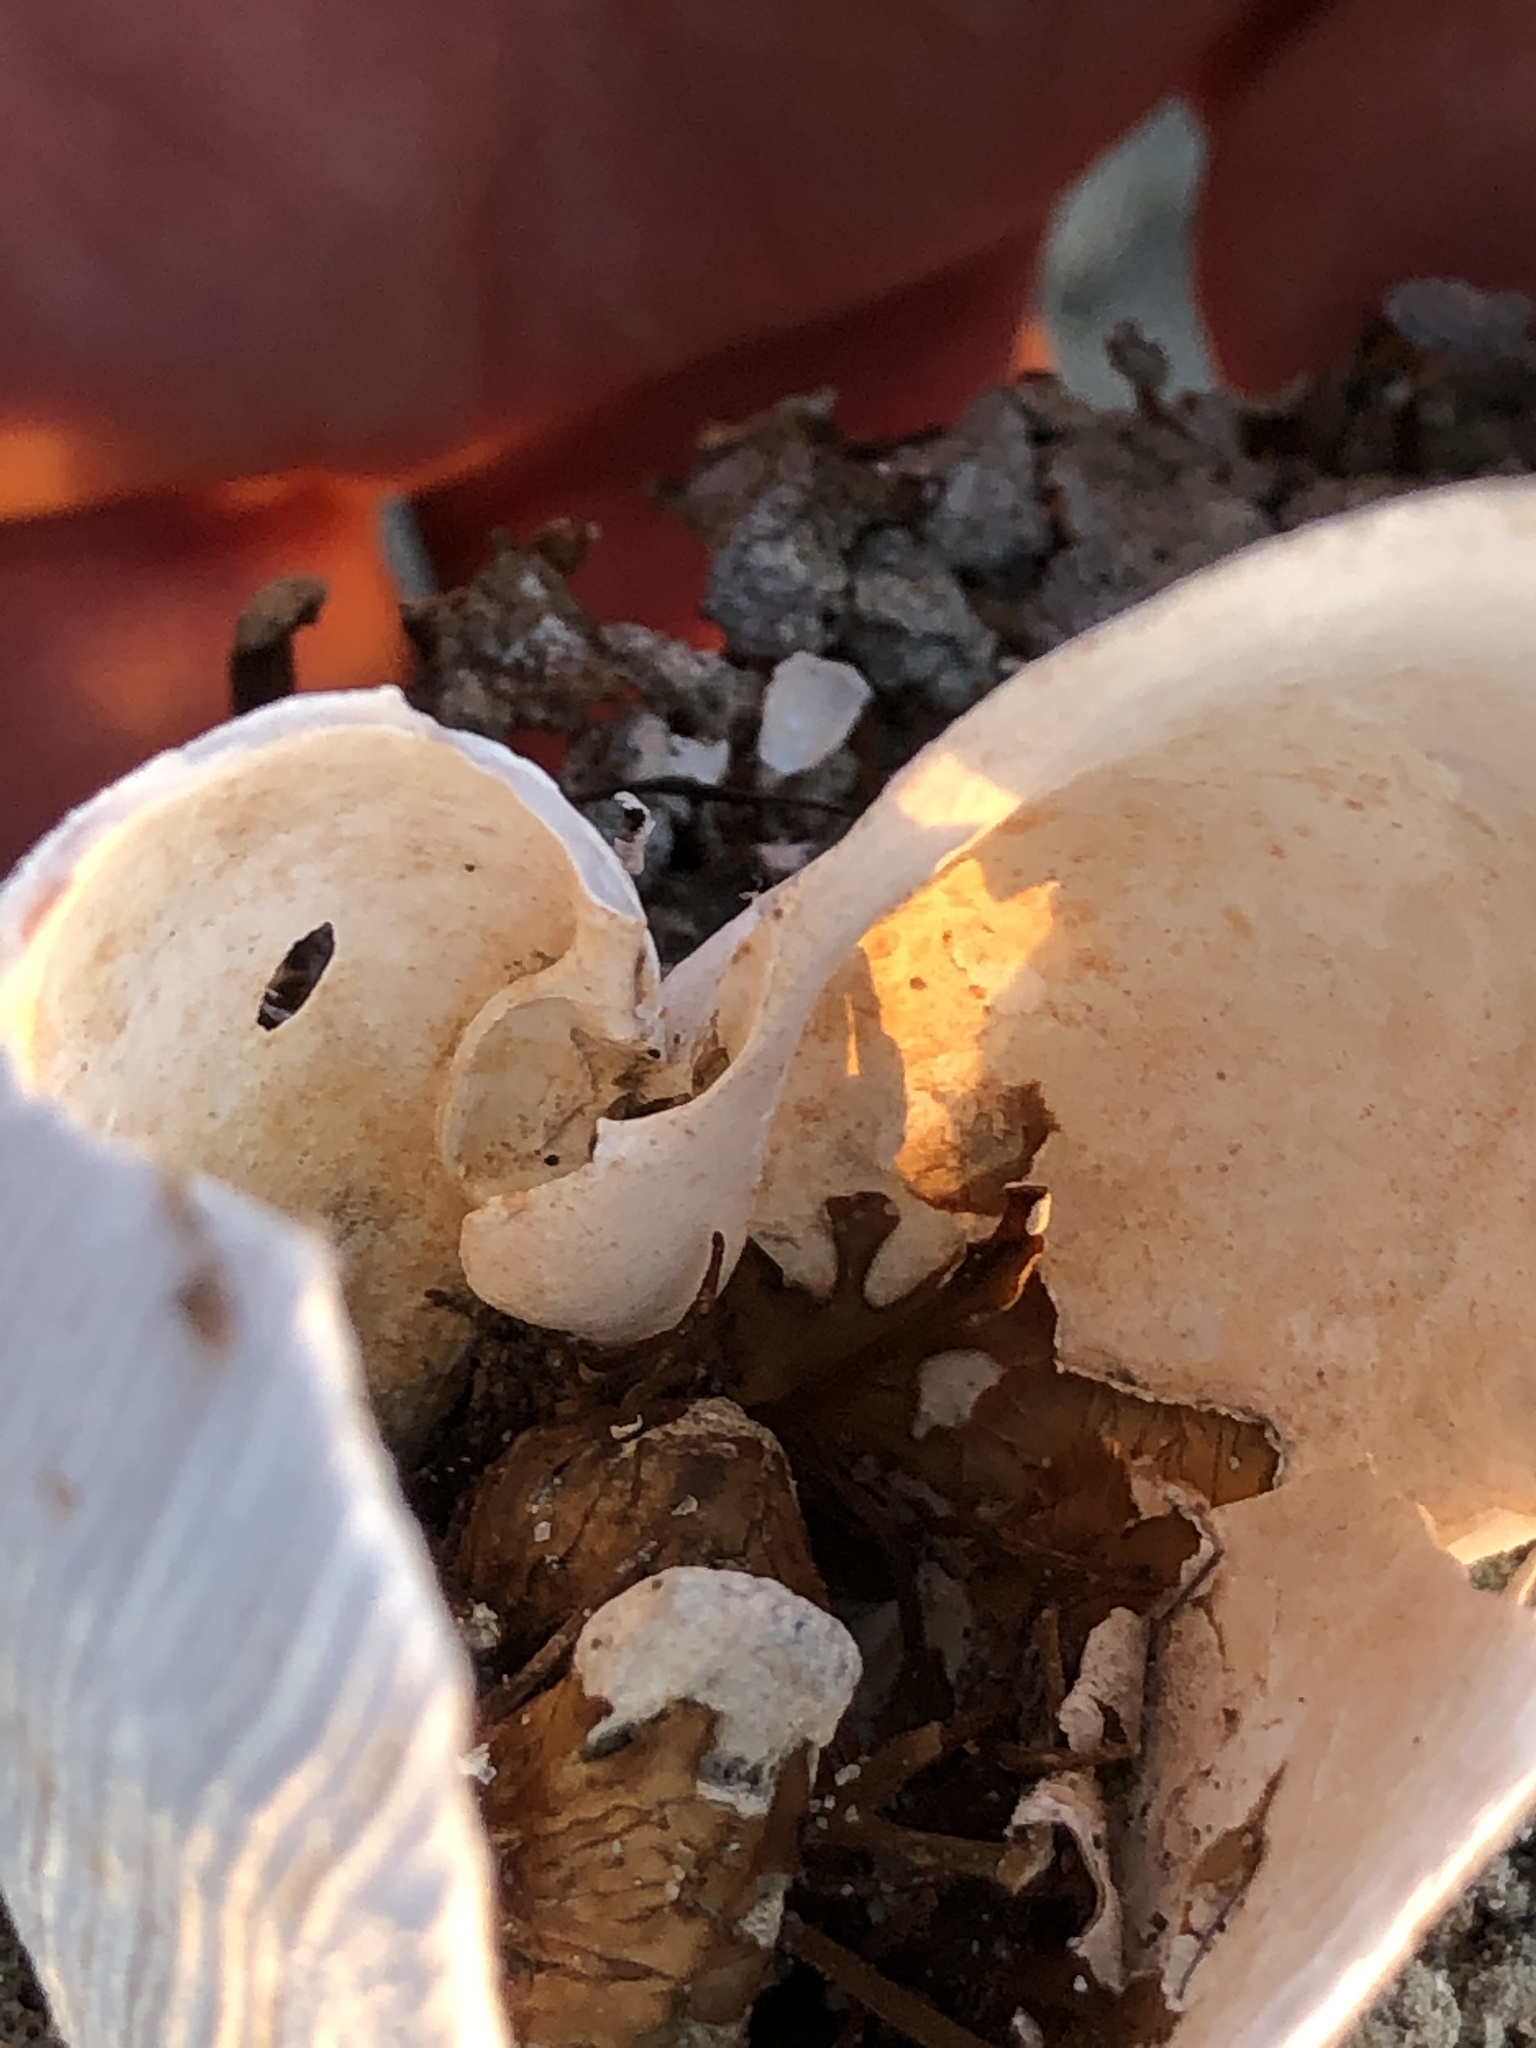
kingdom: Animalia
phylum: Mollusca
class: Bivalvia
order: Myida
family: Myidae
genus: Platyodon
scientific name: Platyodon cancellatus
